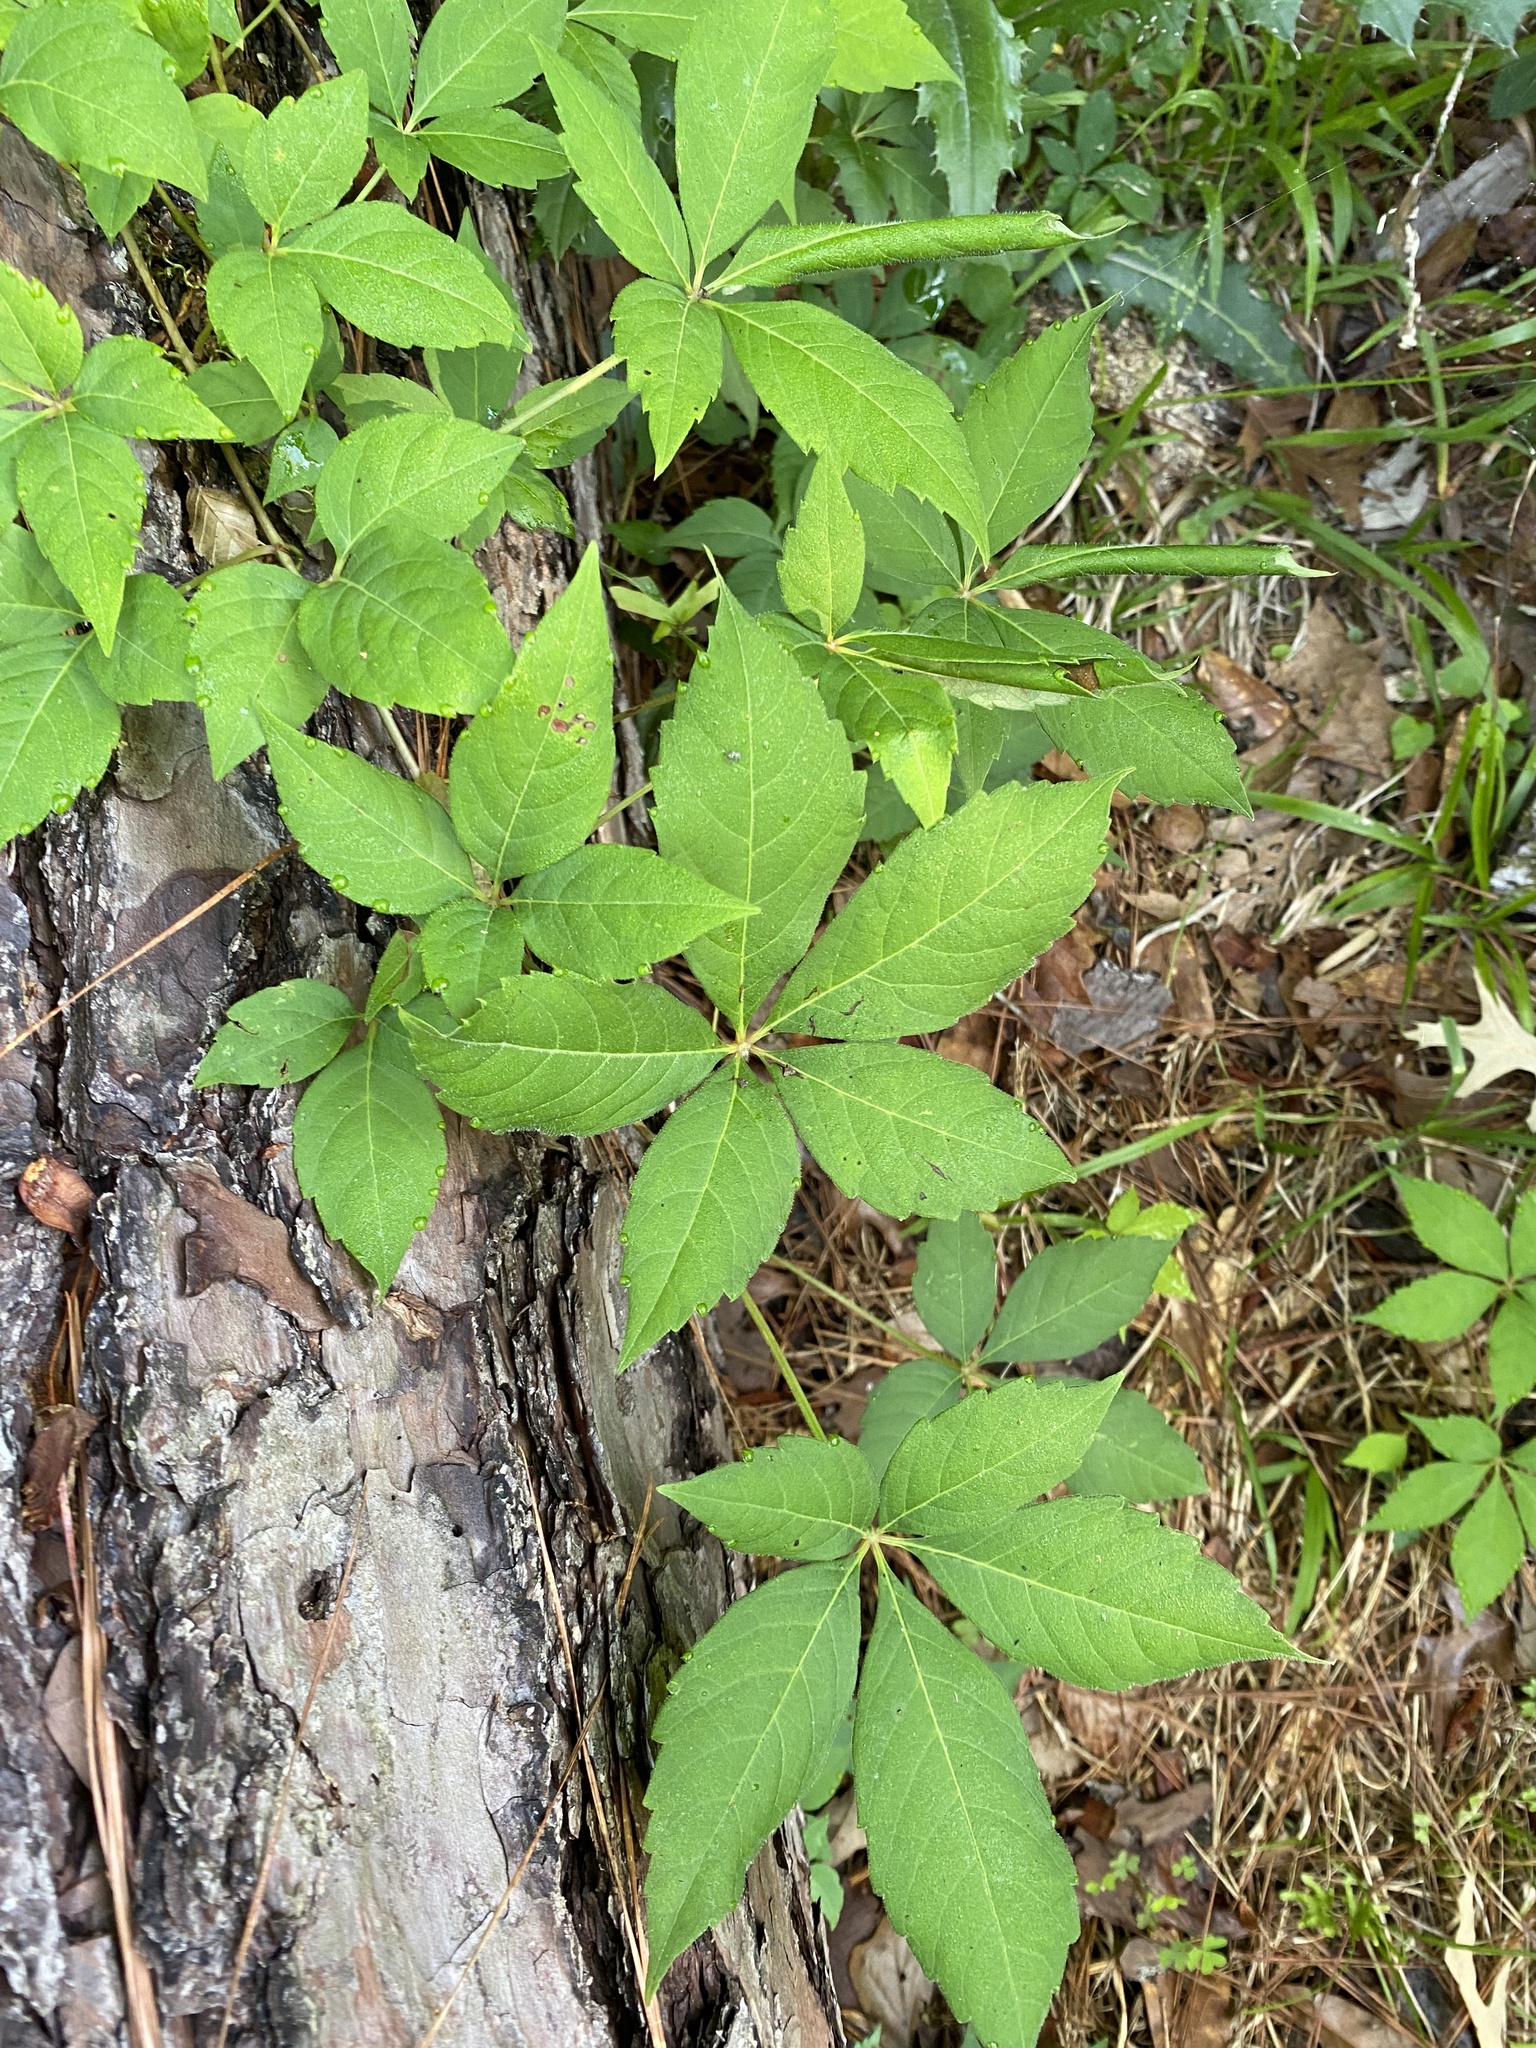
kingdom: Plantae
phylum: Tracheophyta
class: Magnoliopsida
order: Vitales
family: Vitaceae
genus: Parthenocissus
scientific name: Parthenocissus quinquefolia
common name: Virginia-creeper
